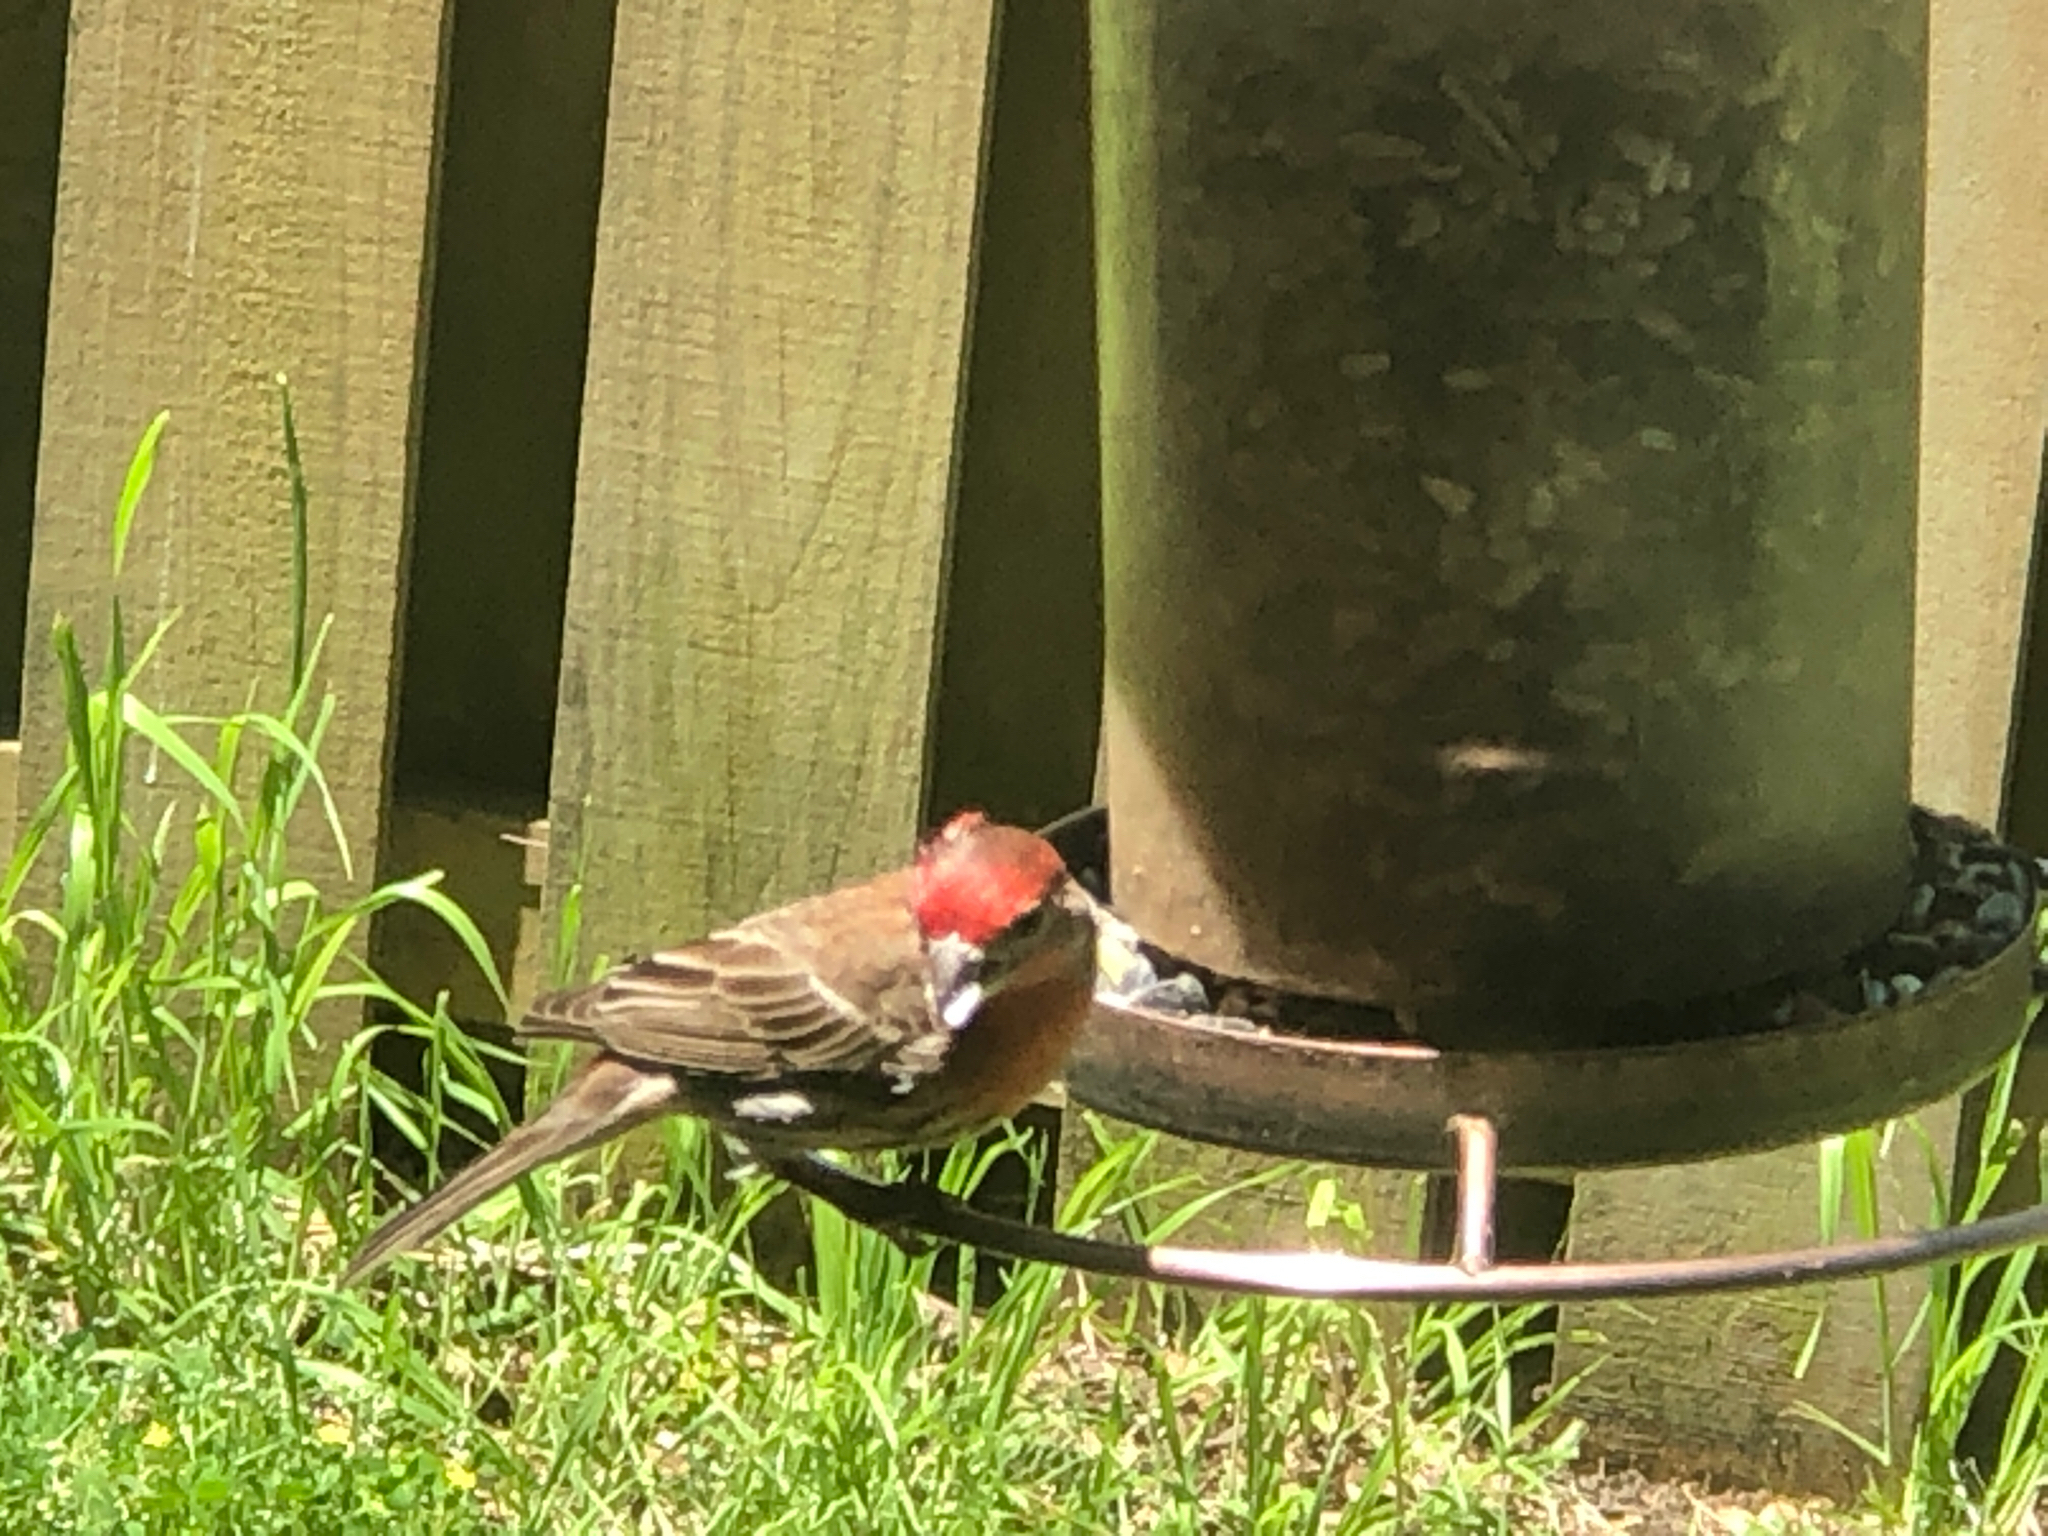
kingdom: Animalia
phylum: Chordata
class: Aves
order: Passeriformes
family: Fringillidae
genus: Haemorhous
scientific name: Haemorhous mexicanus
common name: House finch
